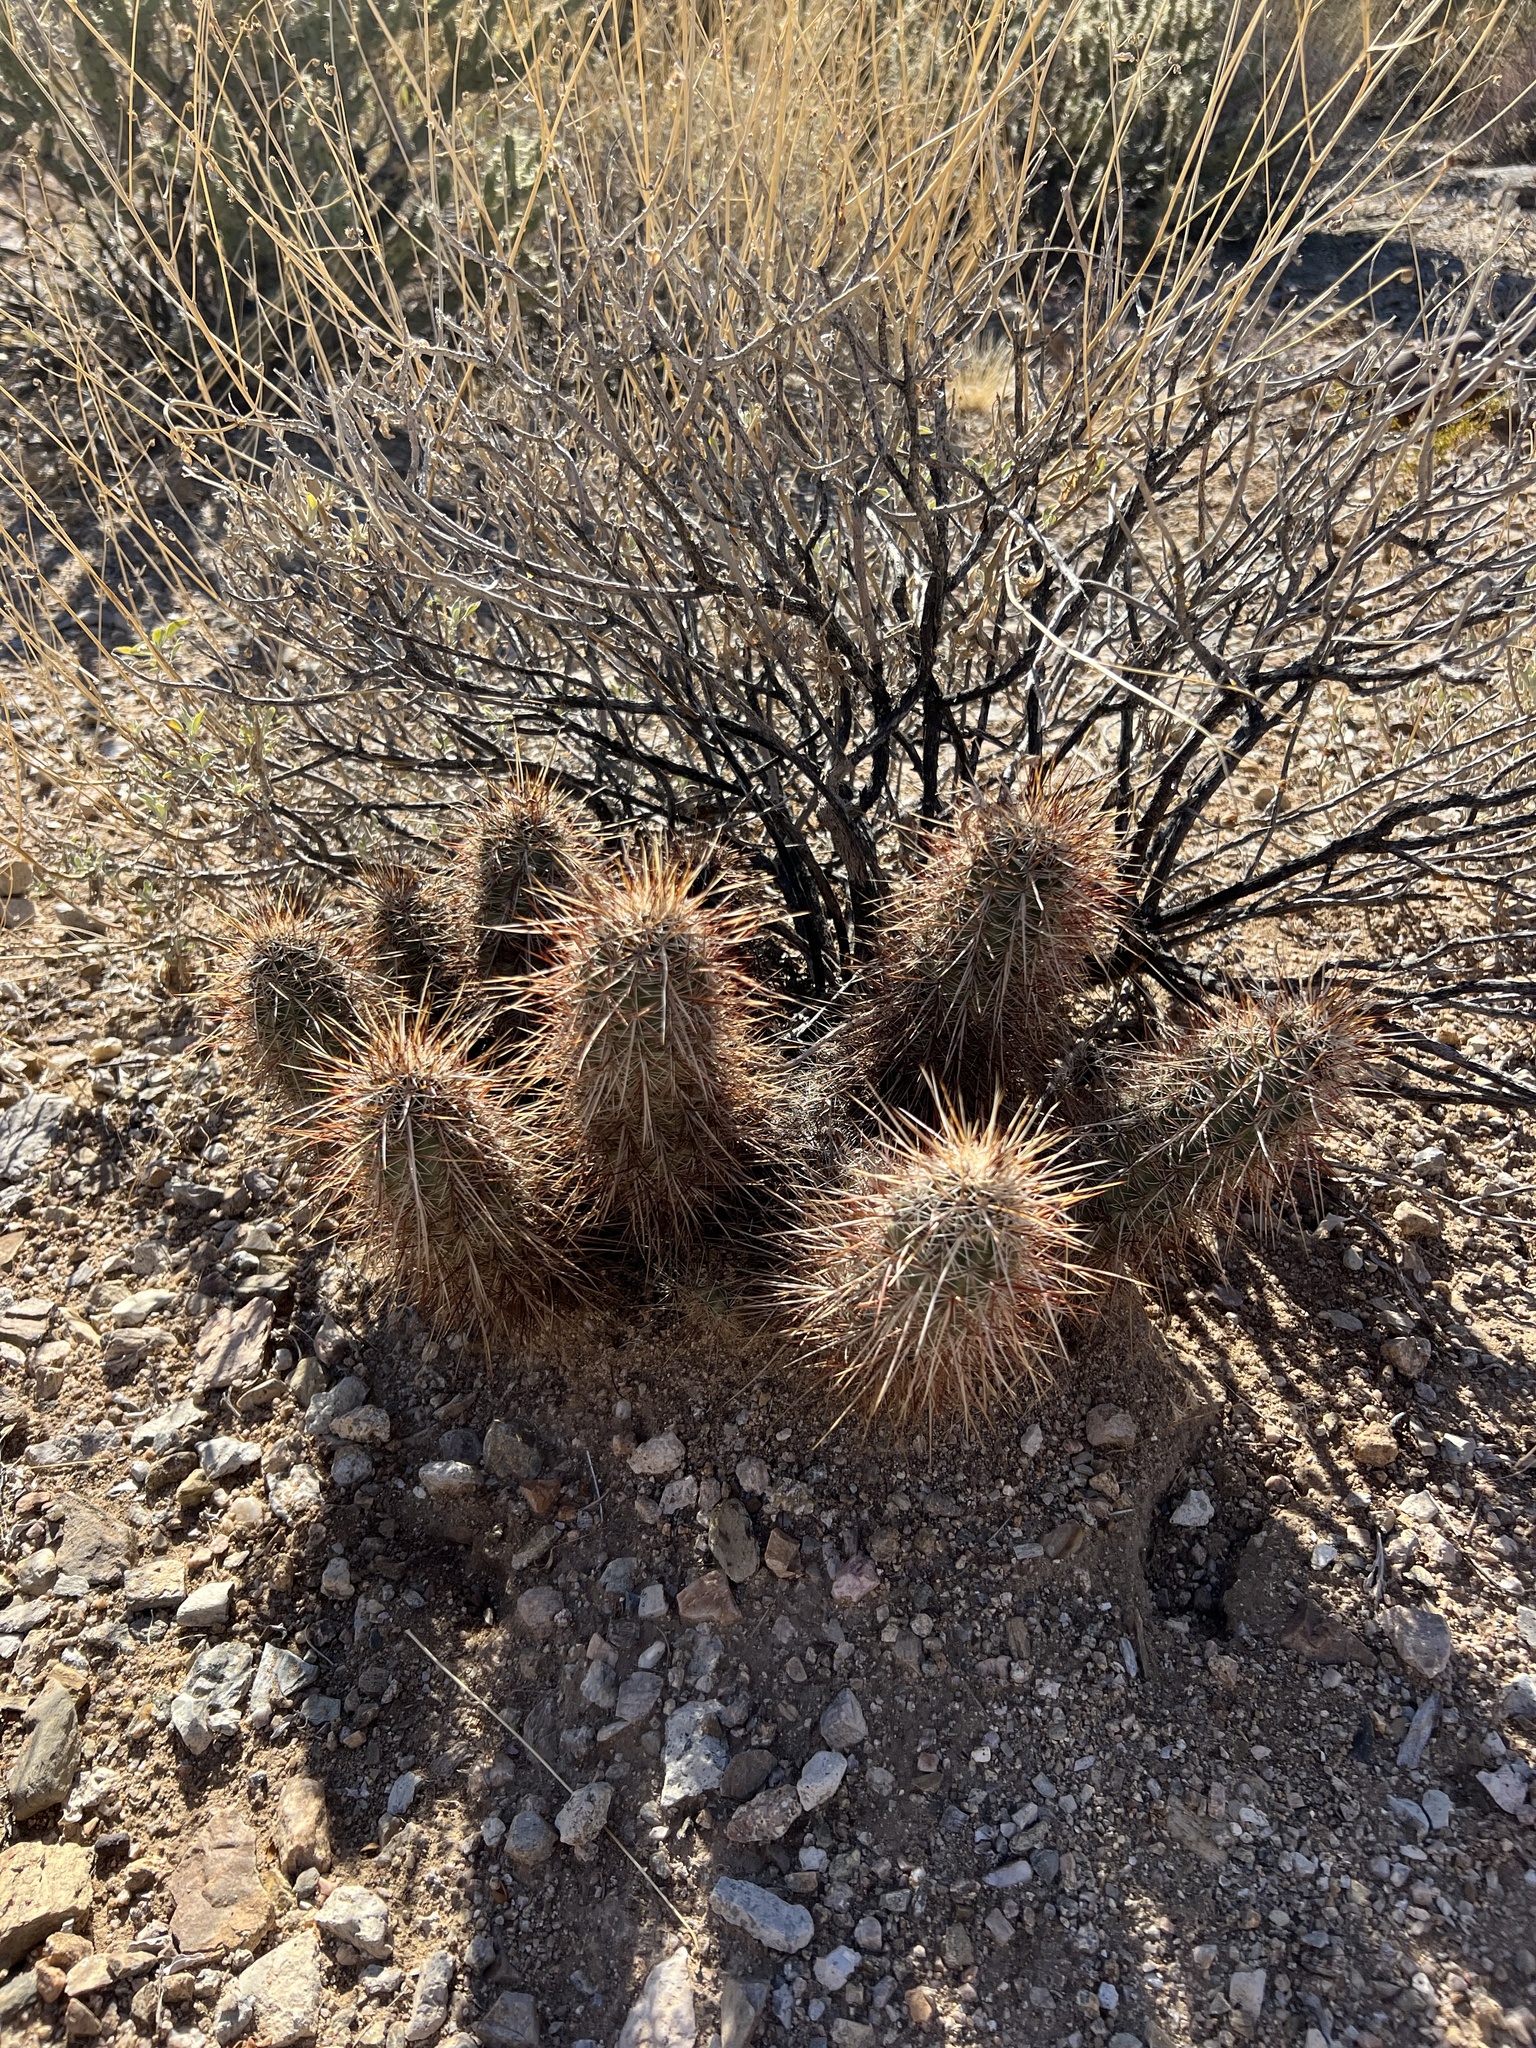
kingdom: Plantae
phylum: Tracheophyta
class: Magnoliopsida
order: Caryophyllales
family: Cactaceae
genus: Echinocereus
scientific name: Echinocereus engelmannii
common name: Engelmann's hedgehog cactus
